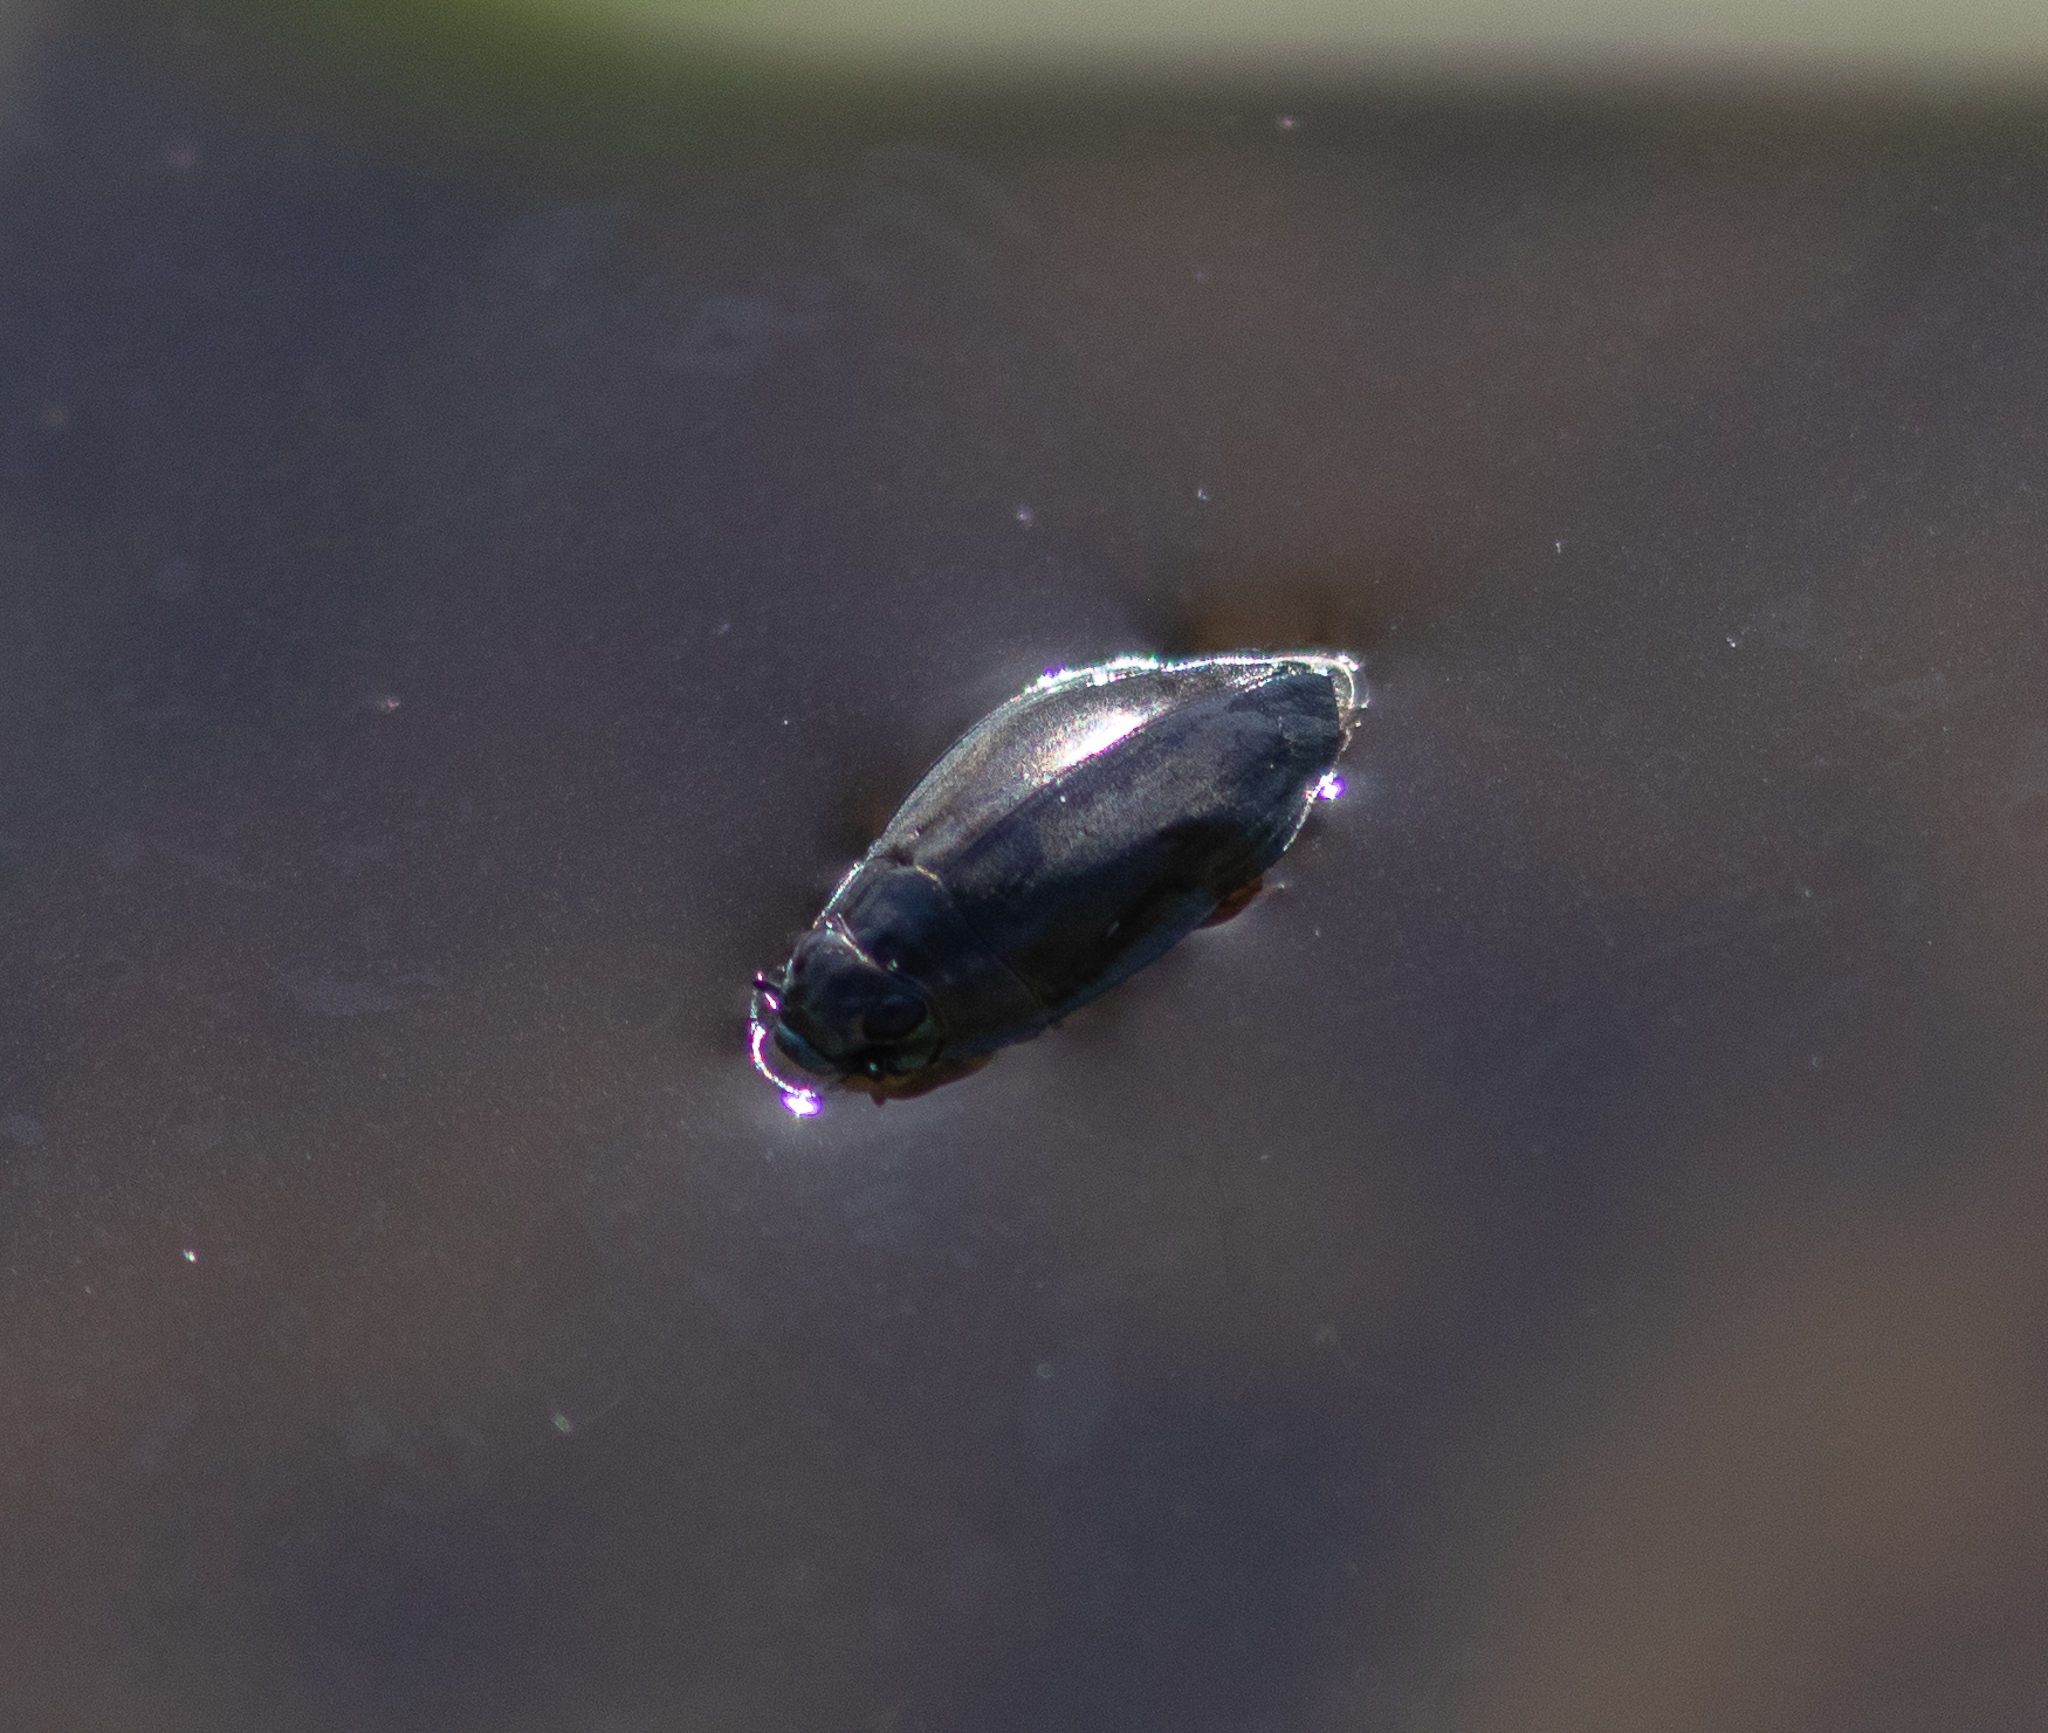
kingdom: Animalia
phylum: Arthropoda
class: Insecta
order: Coleoptera
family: Gyrinidae
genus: Dineutus
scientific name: Dineutus
